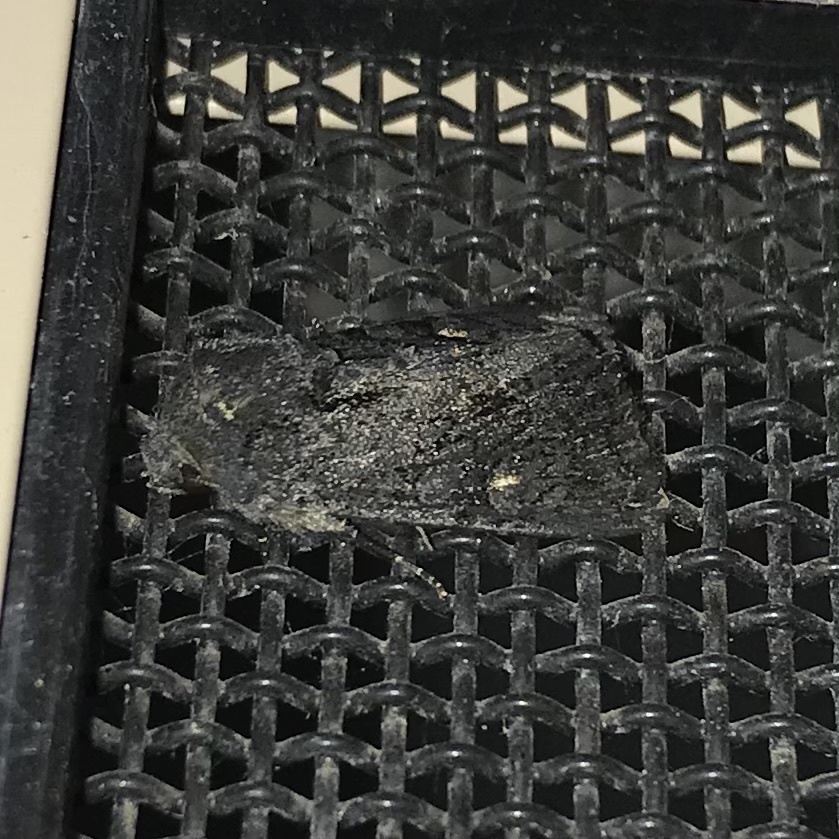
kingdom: Animalia
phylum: Arthropoda
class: Insecta
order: Lepidoptera
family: Noctuidae
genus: Neumichtis
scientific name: Neumichtis nigerrima
